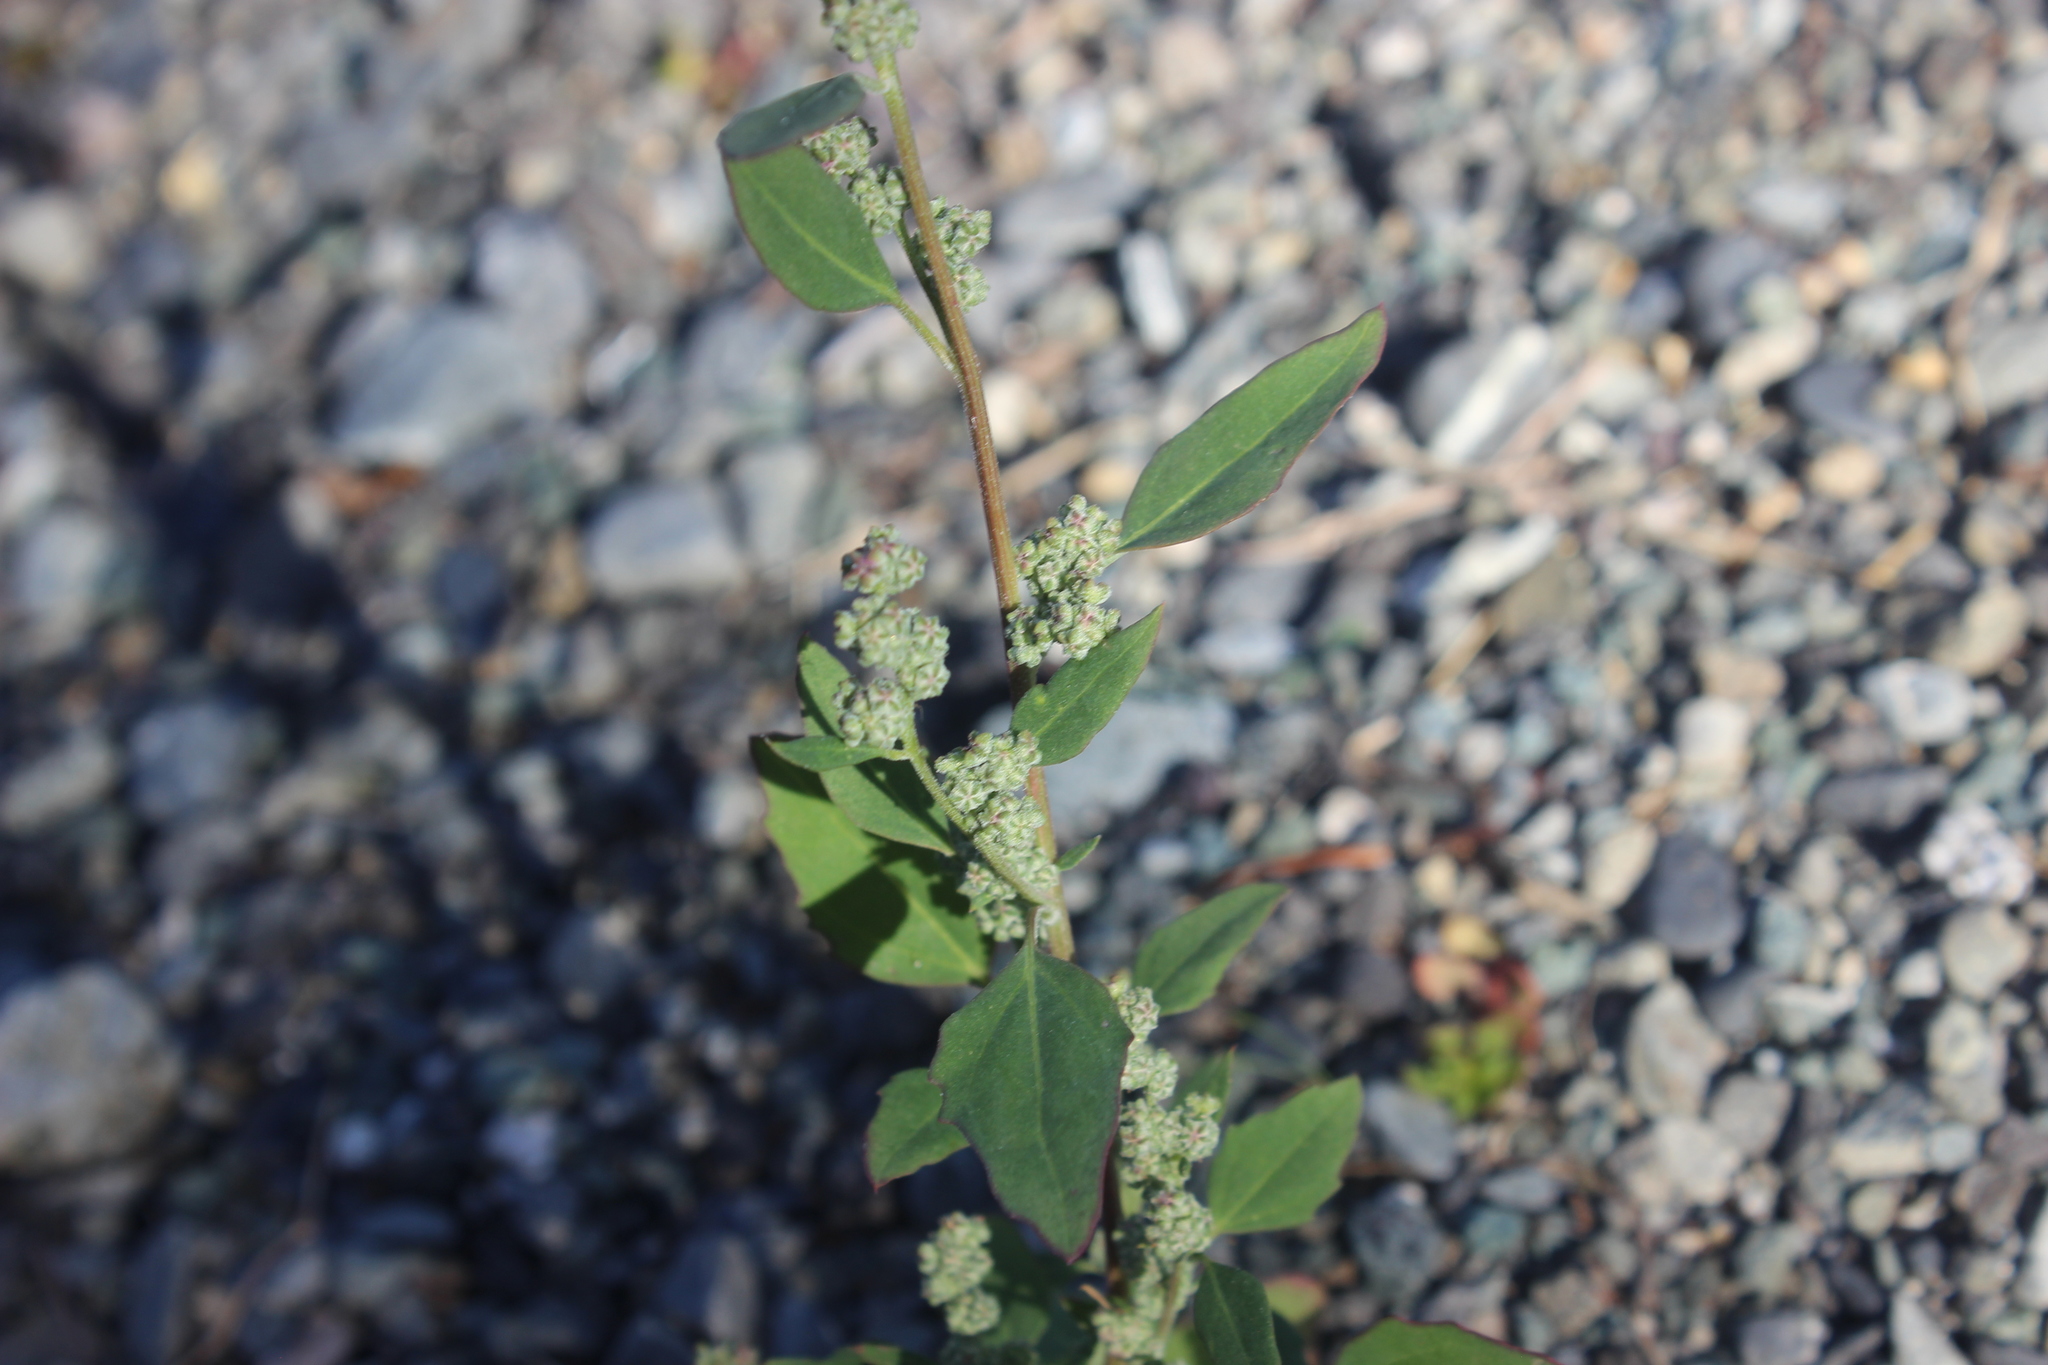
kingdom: Plantae
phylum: Tracheophyta
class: Magnoliopsida
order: Caryophyllales
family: Amaranthaceae
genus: Chenopodium
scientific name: Chenopodium album
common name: Fat-hen
